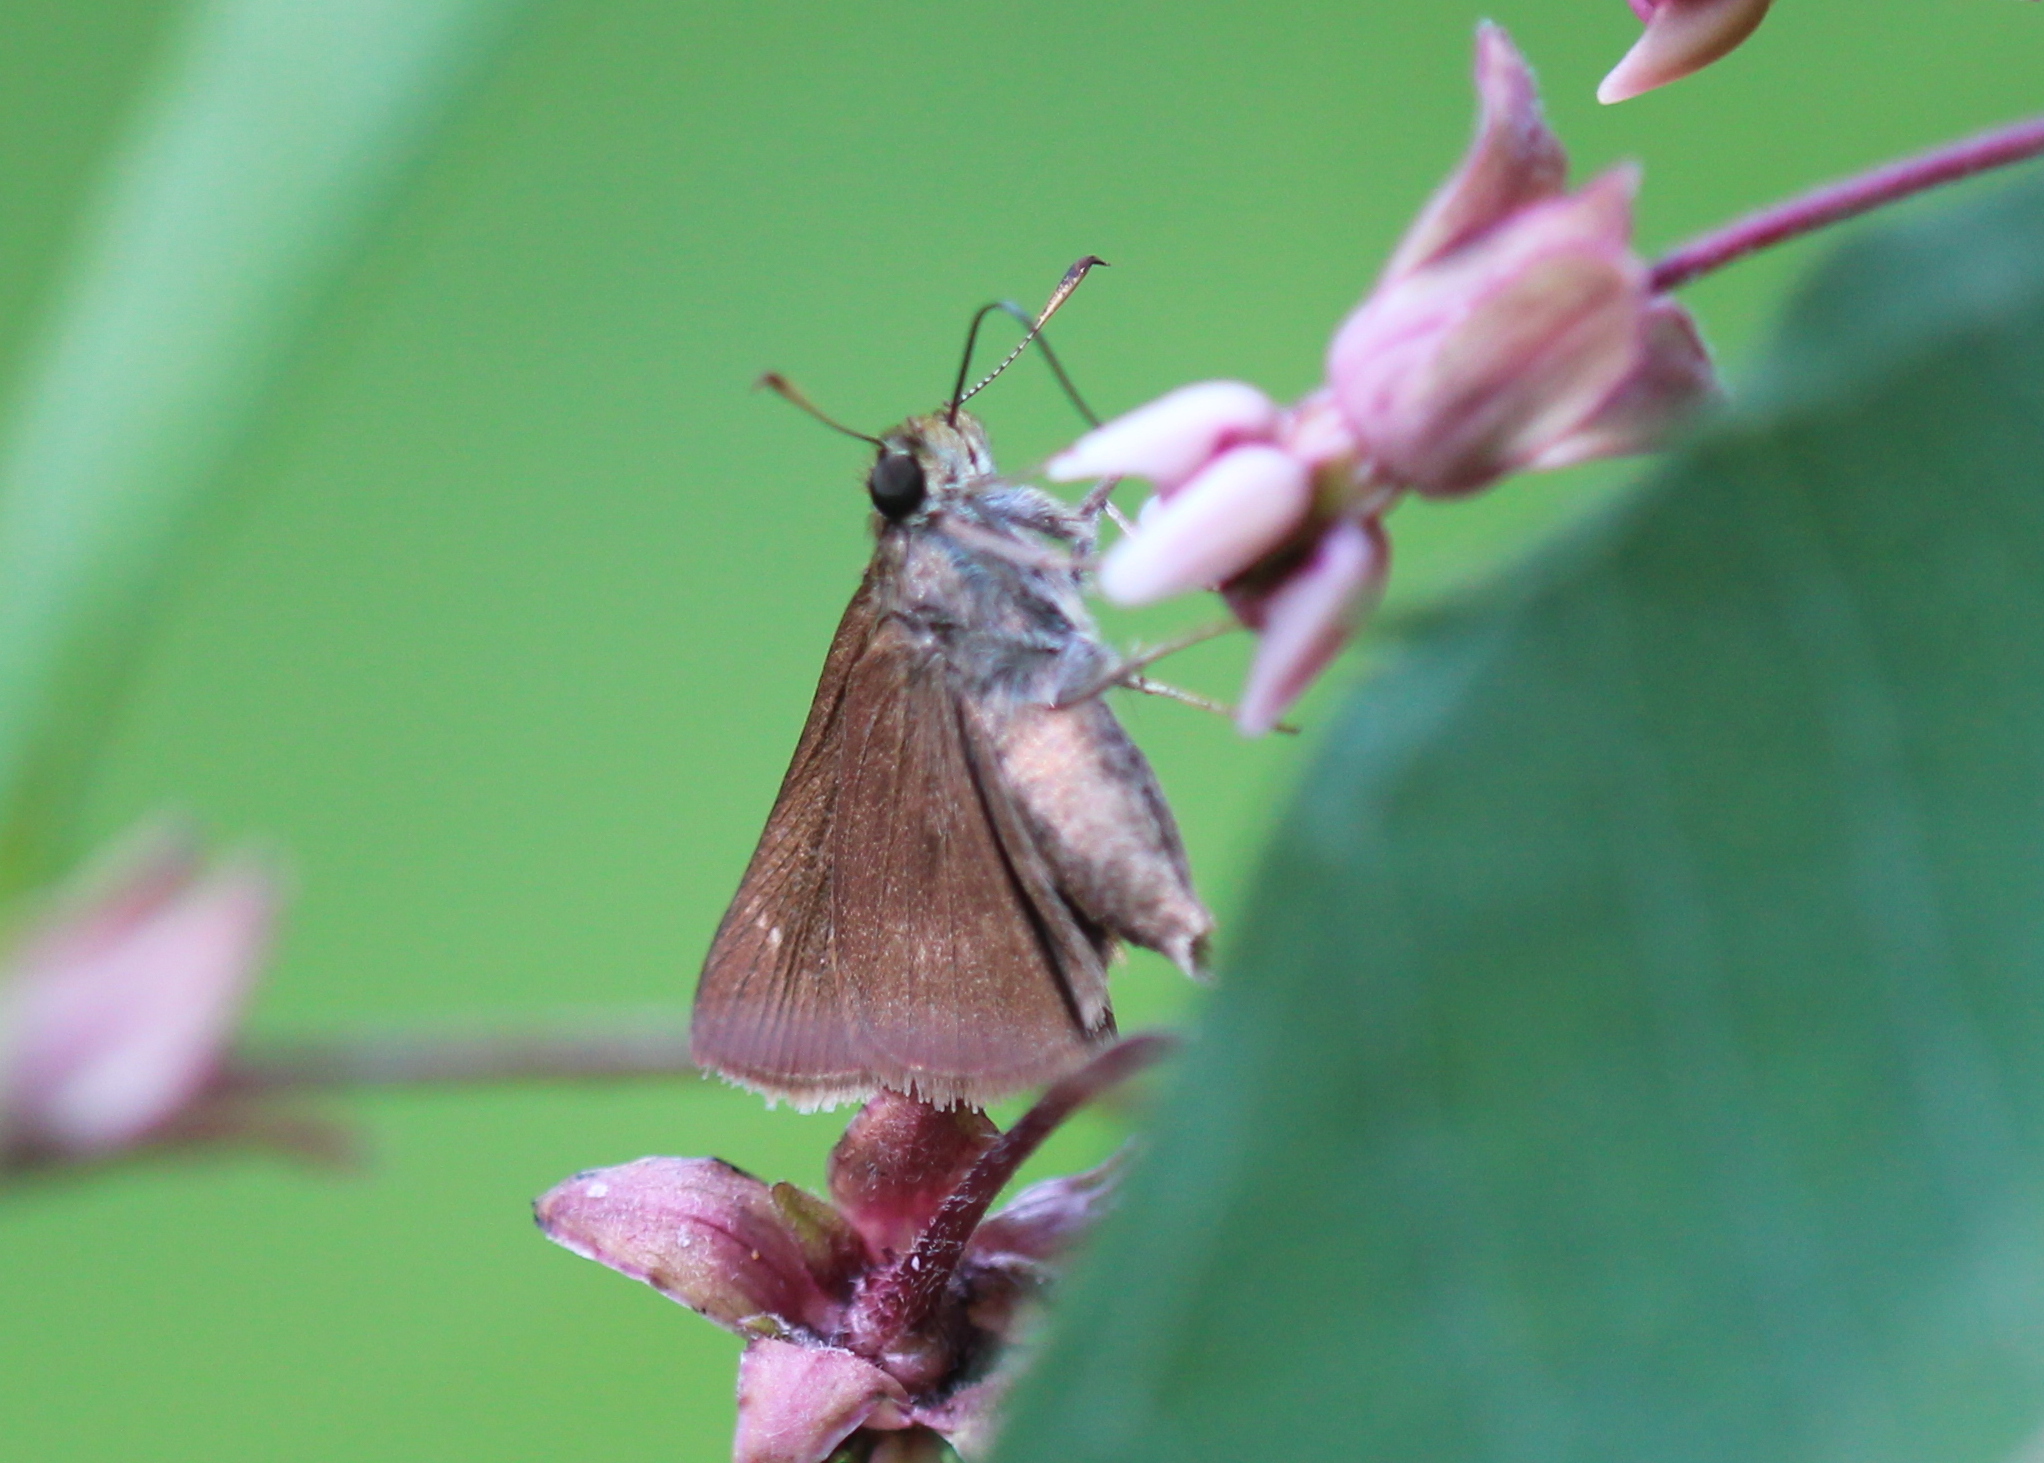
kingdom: Animalia
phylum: Arthropoda
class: Insecta
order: Lepidoptera
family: Hesperiidae
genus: Euphyes
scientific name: Euphyes vestris
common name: Dun skipper
